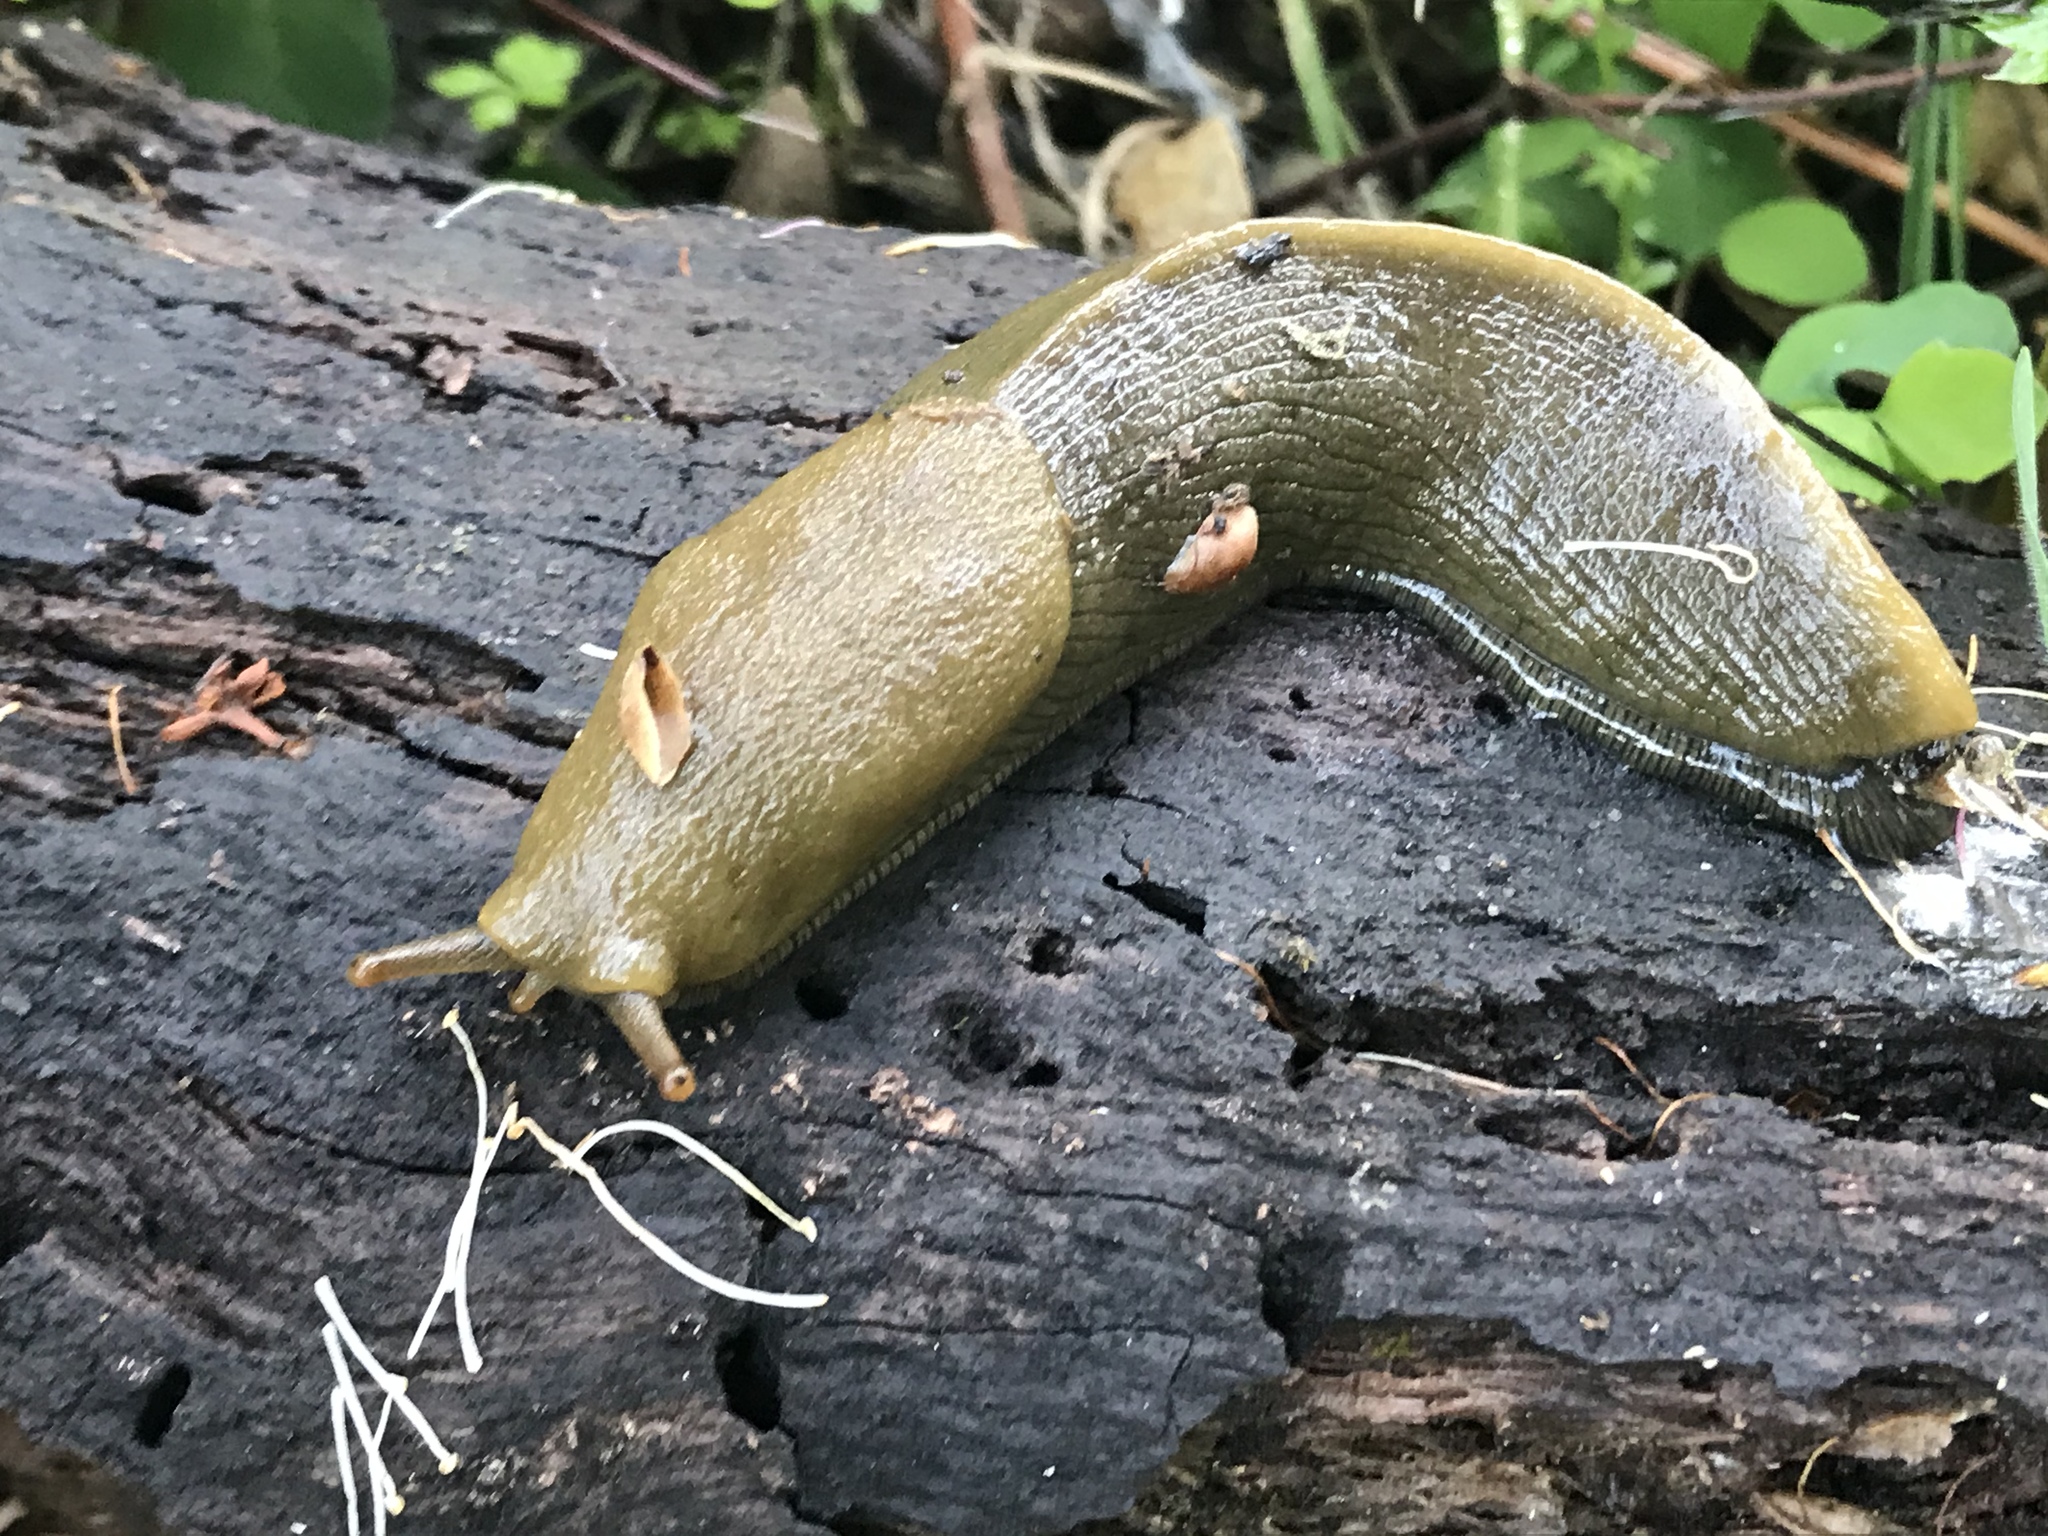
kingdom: Animalia
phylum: Mollusca
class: Gastropoda
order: Stylommatophora
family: Ariolimacidae
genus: Ariolimax
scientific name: Ariolimax buttoni
